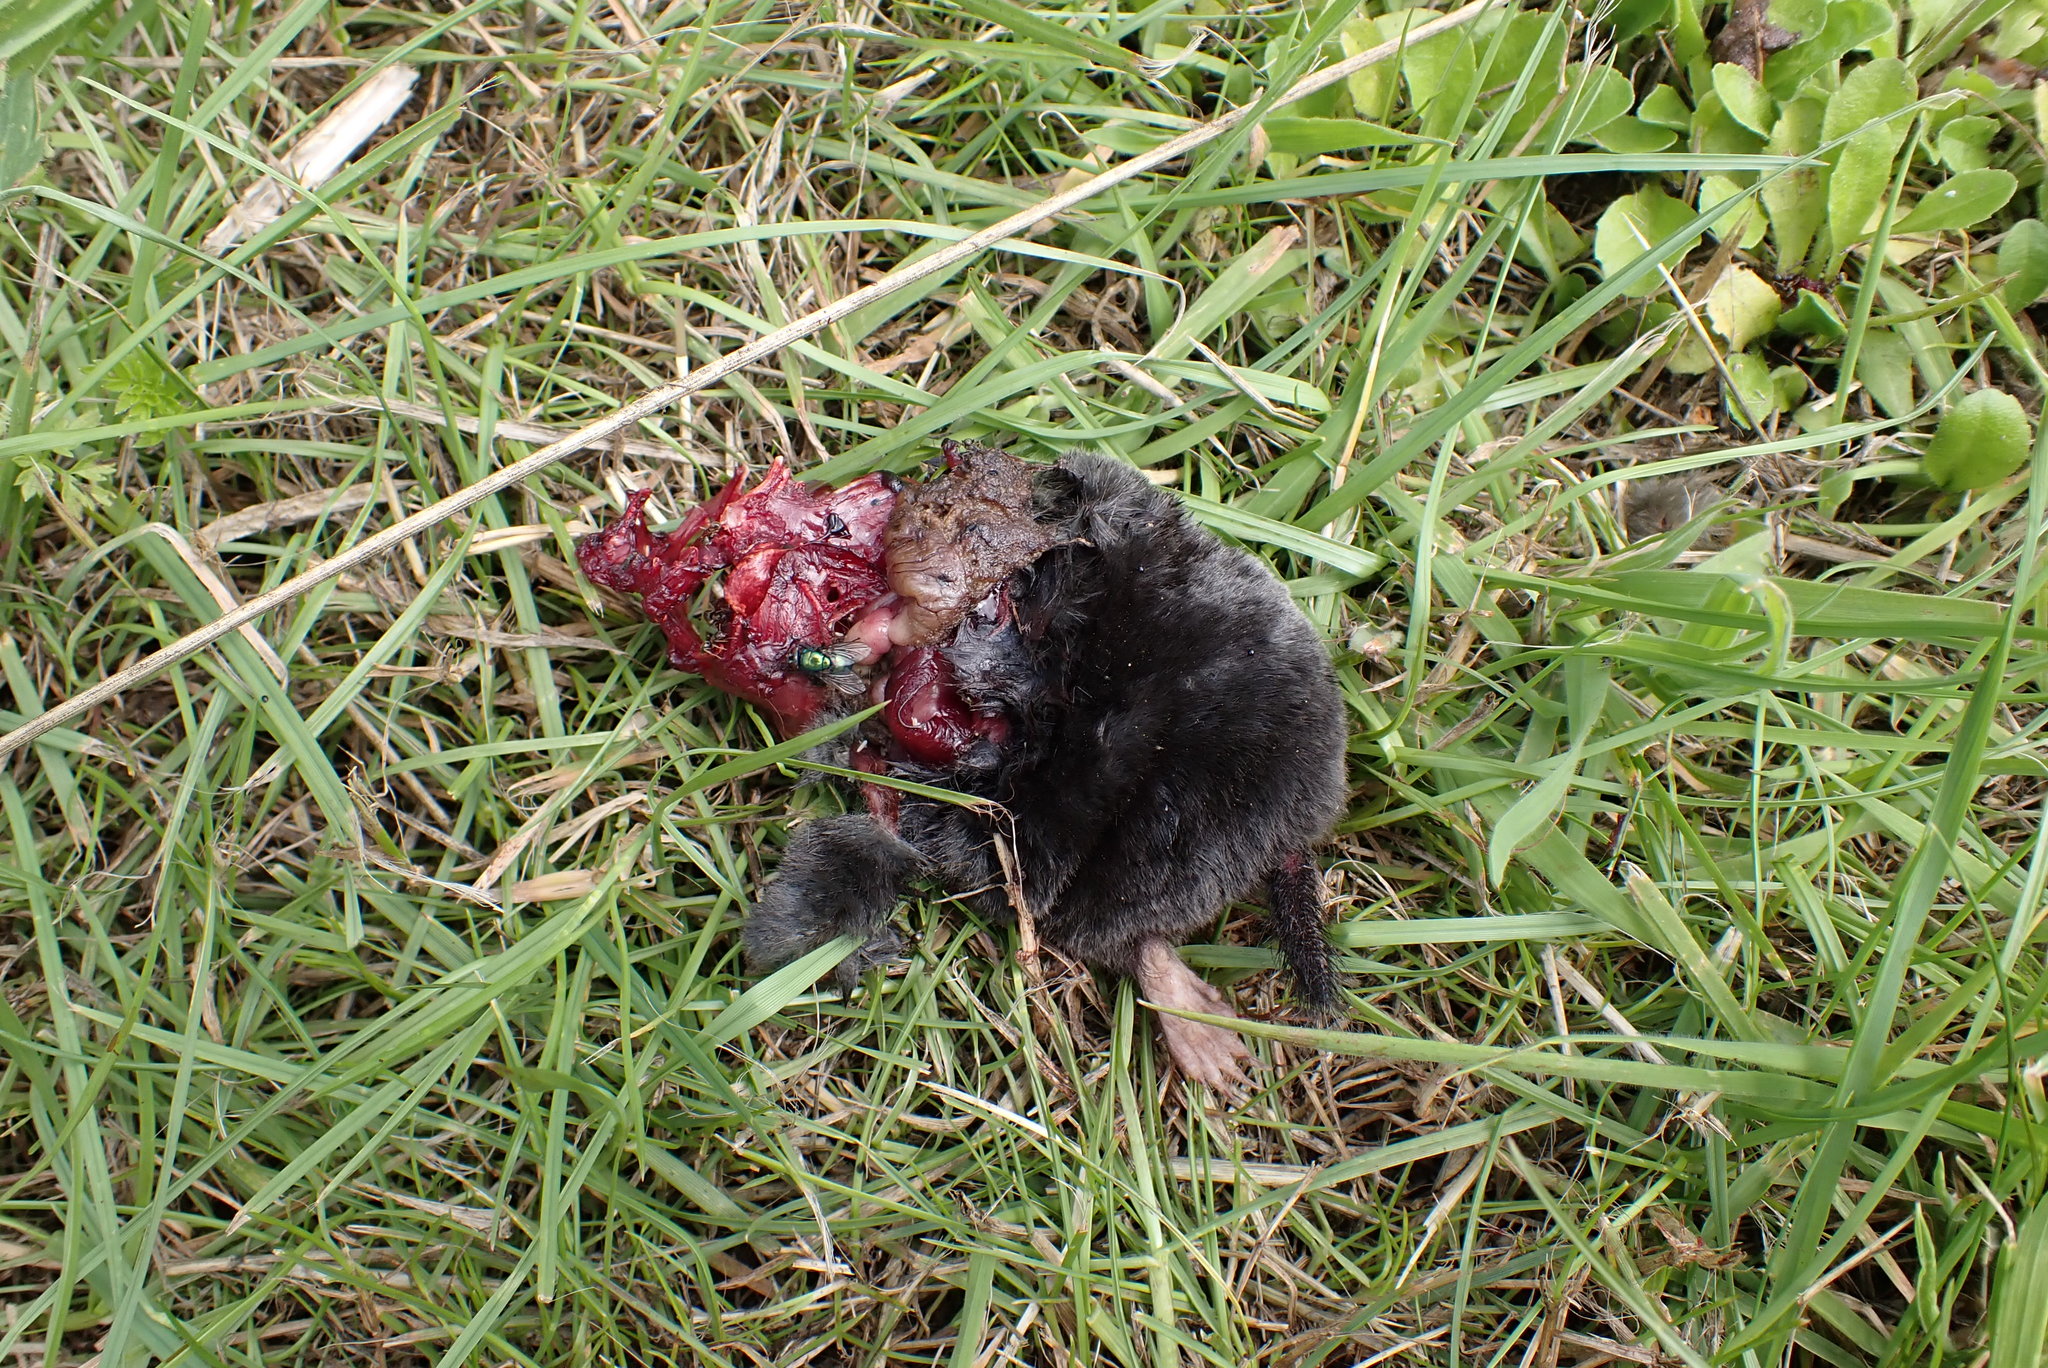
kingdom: Animalia
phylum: Chordata
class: Mammalia
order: Soricomorpha
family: Talpidae
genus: Talpa
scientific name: Talpa europaea
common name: European mole
